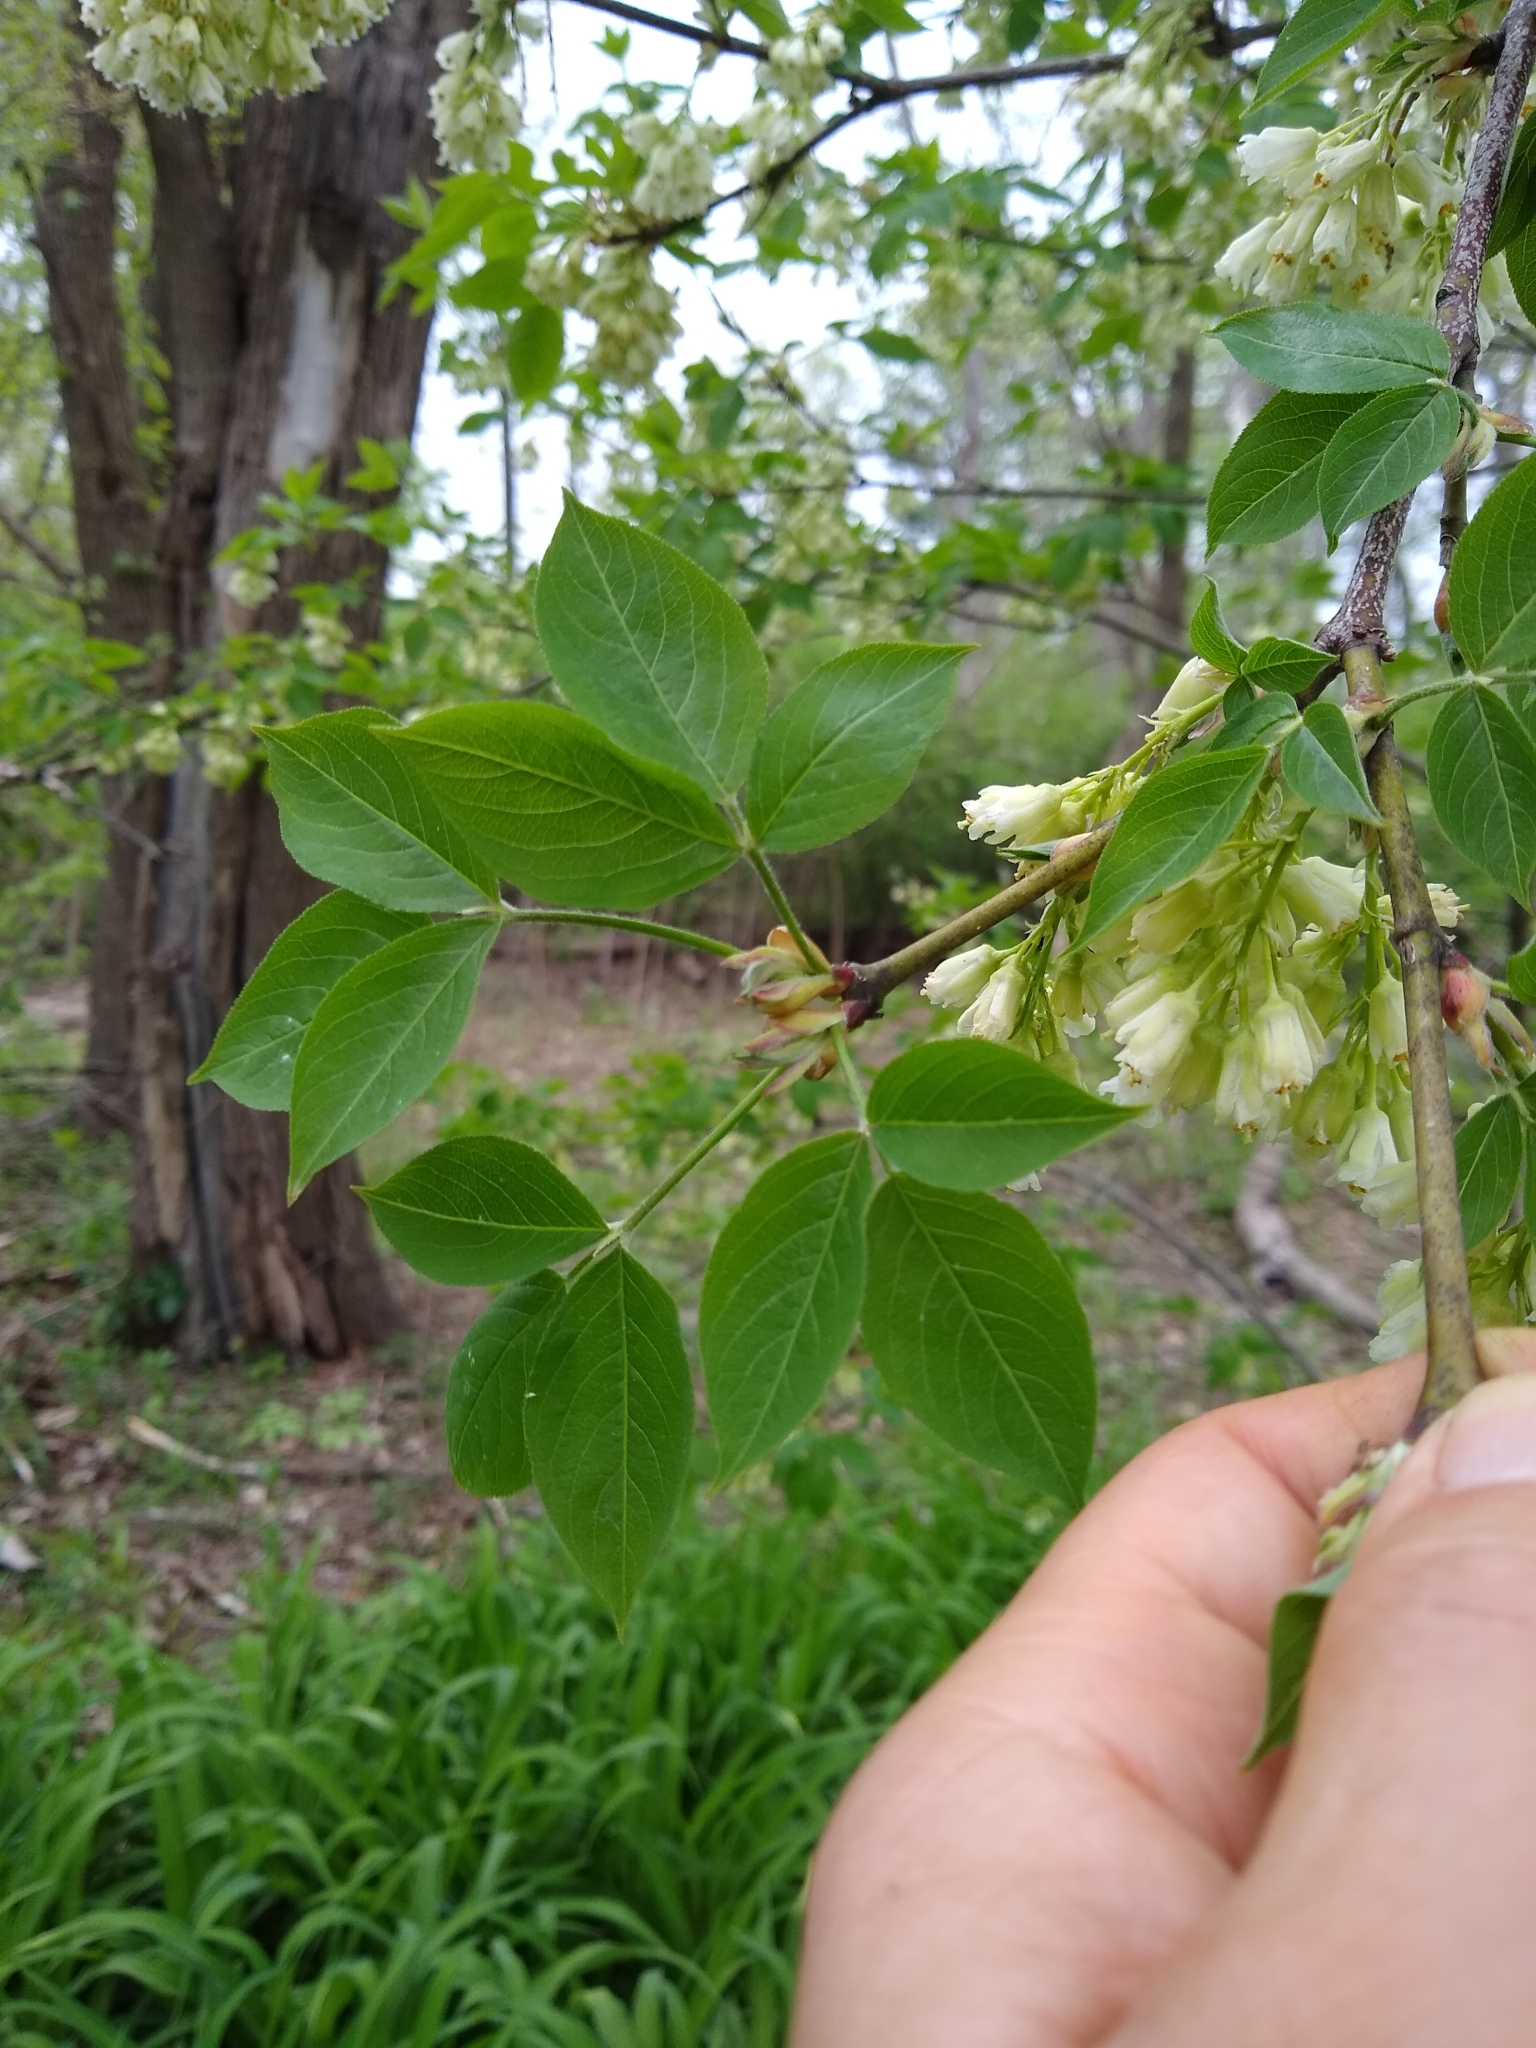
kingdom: Plantae
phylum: Tracheophyta
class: Magnoliopsida
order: Crossosomatales
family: Staphyleaceae
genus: Staphylea
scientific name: Staphylea trifolia
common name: American bladdernut
